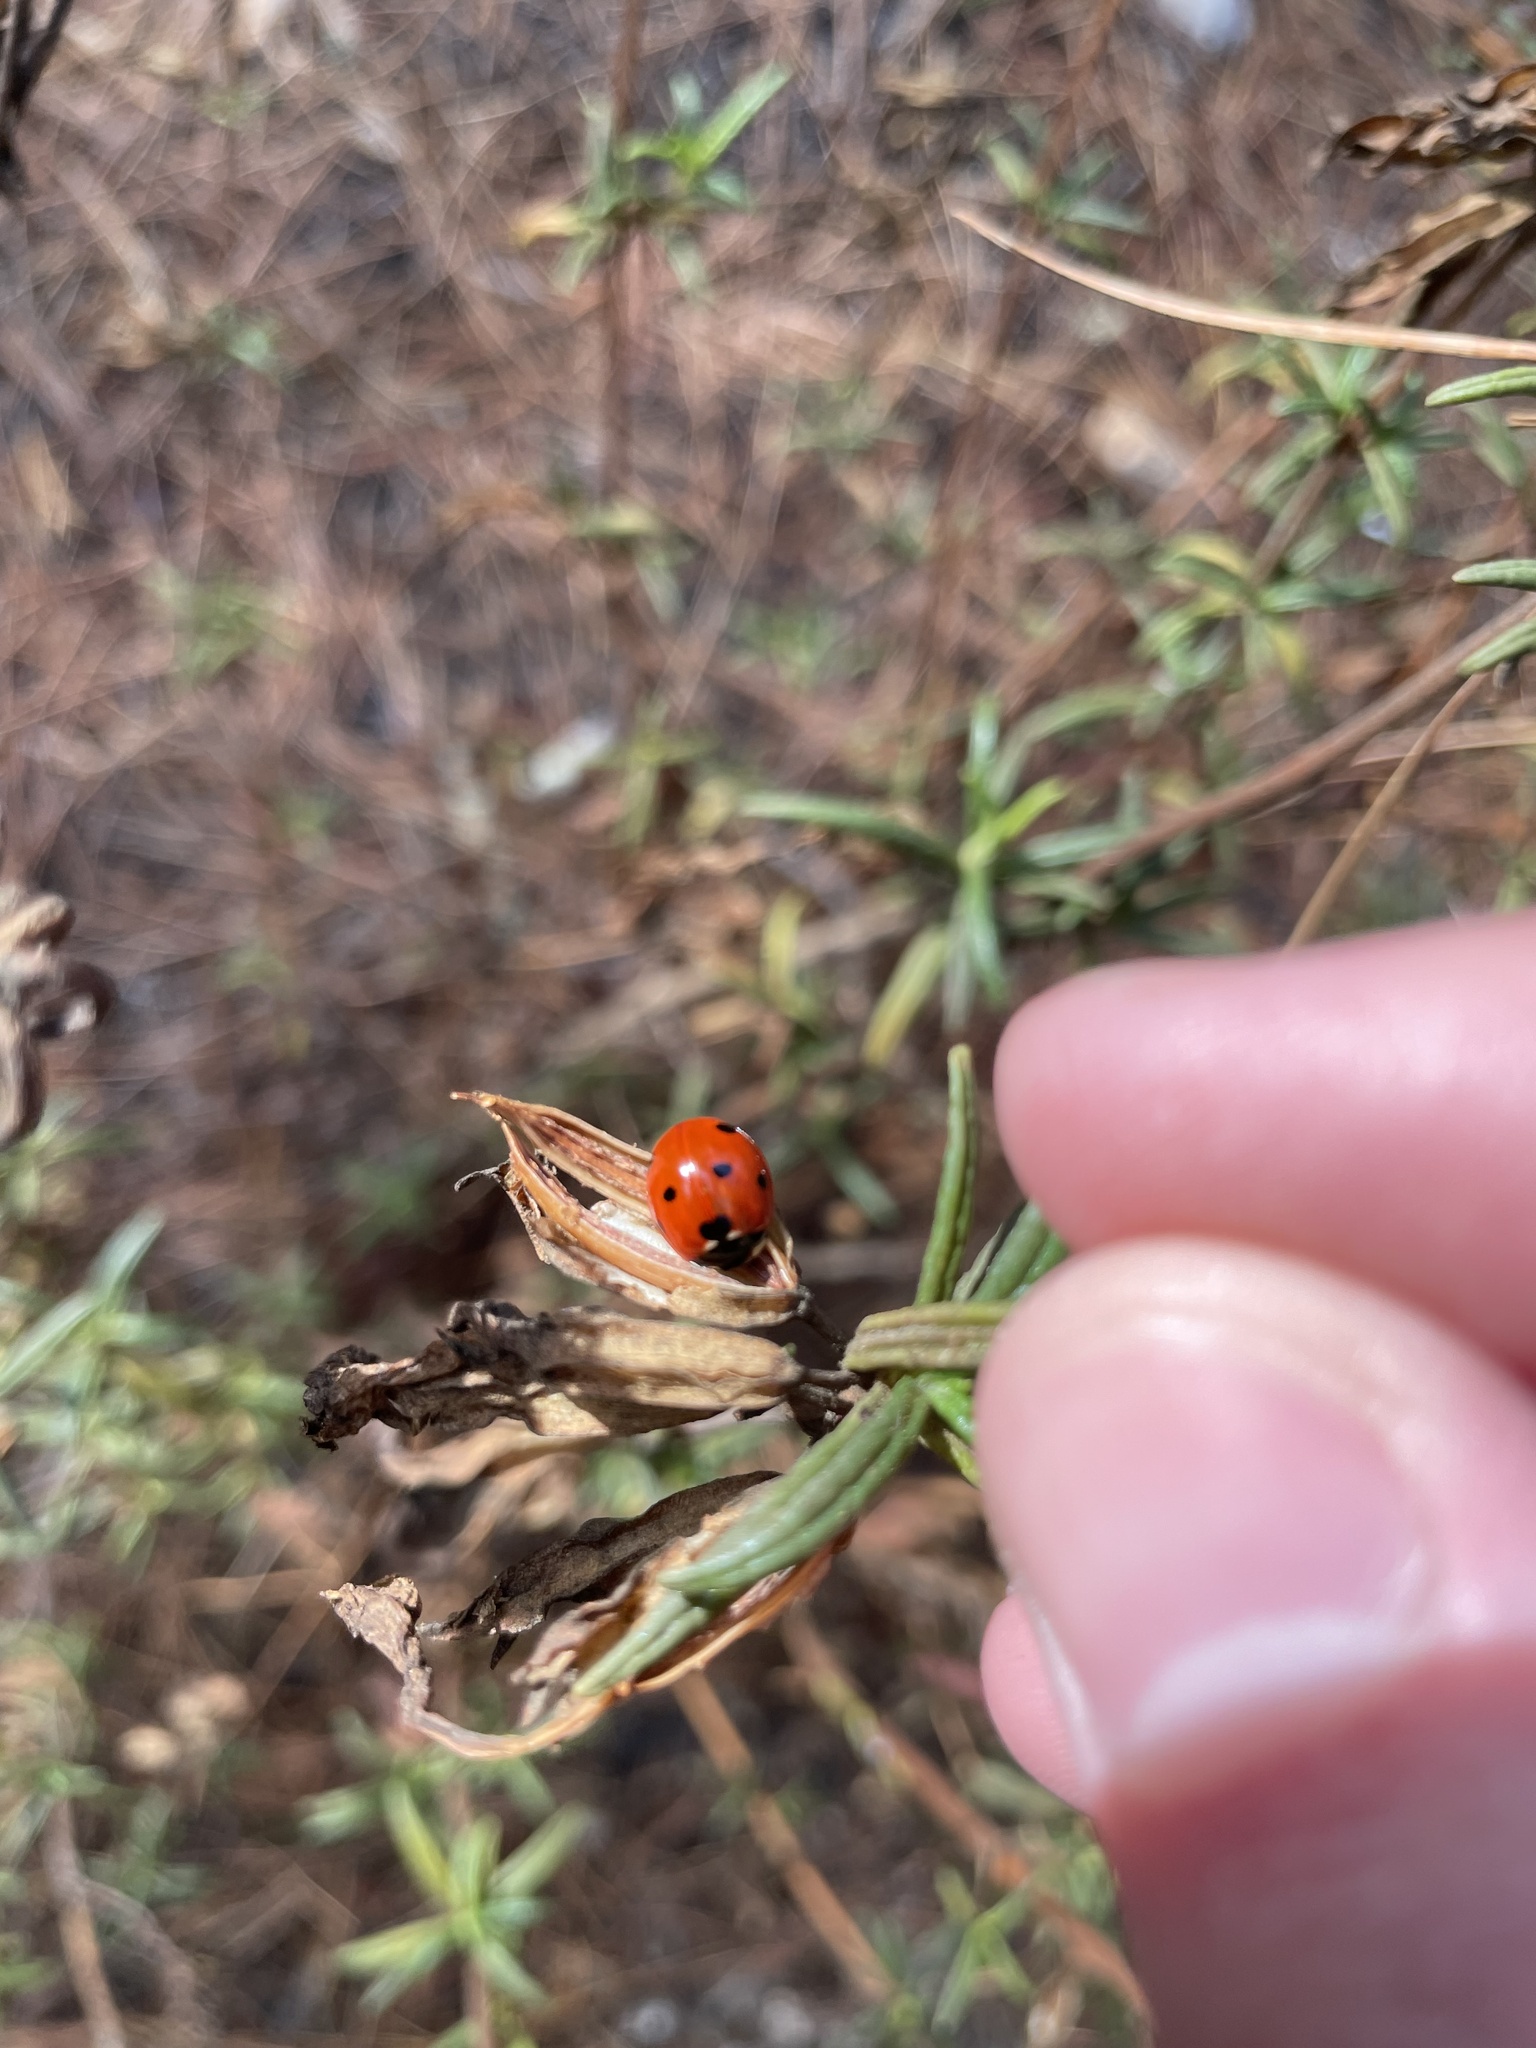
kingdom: Animalia
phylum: Arthropoda
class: Insecta
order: Coleoptera
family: Coccinellidae
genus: Coccinella
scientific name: Coccinella septempunctata
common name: Sevenspotted lady beetle
